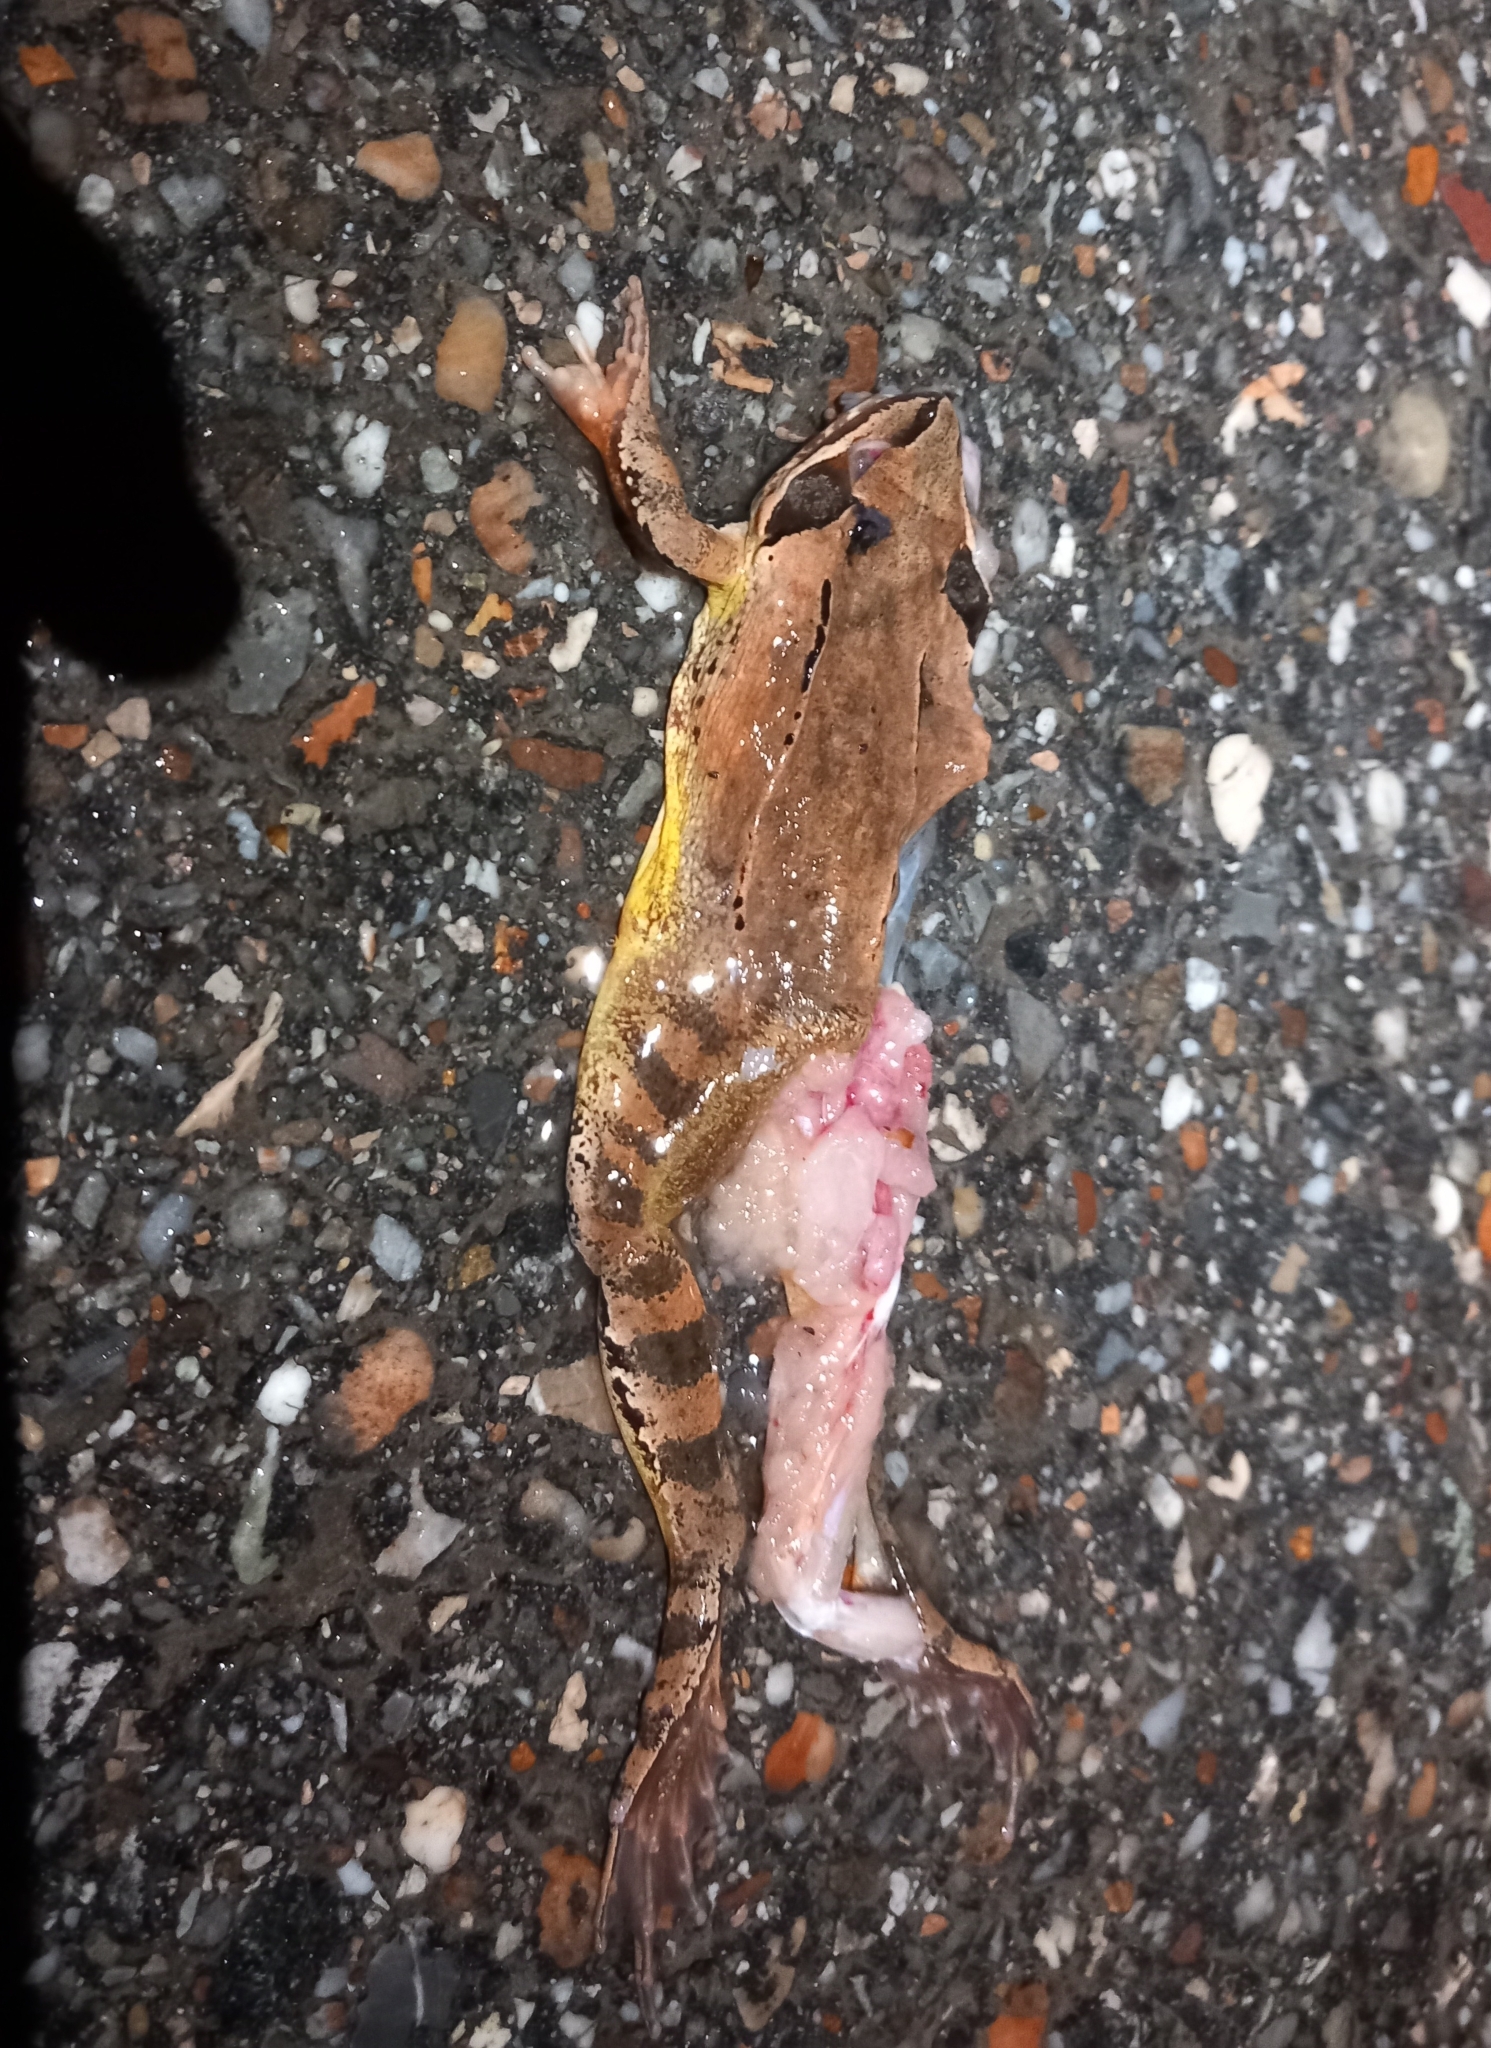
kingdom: Animalia
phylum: Chordata
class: Amphibia
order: Anura
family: Ranidae
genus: Rana
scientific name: Rana dalmatina
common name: Agile frog
